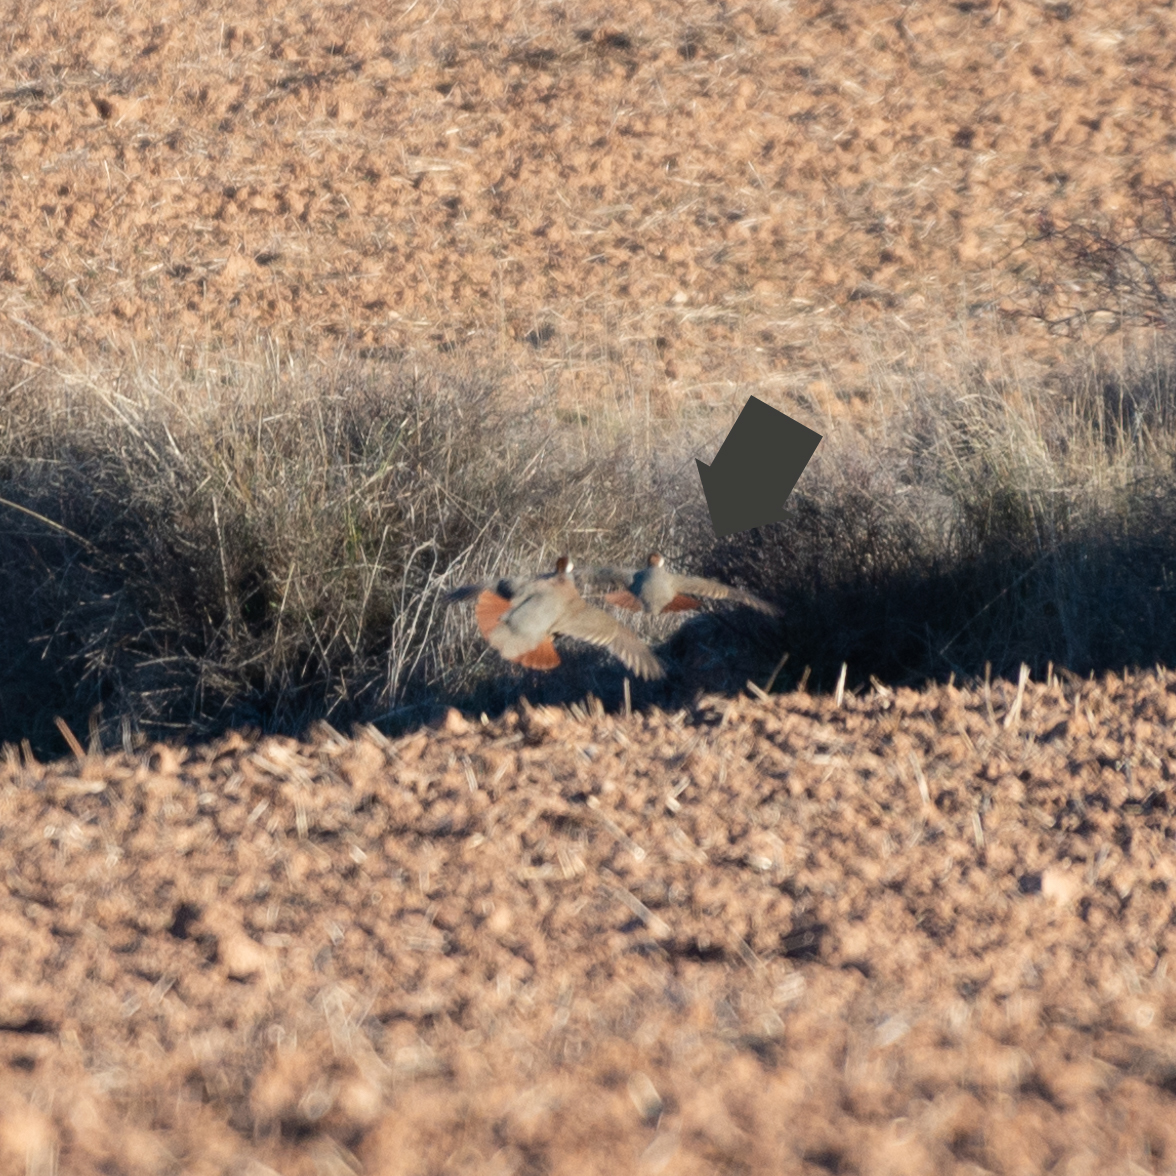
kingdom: Animalia
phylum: Chordata
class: Aves
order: Galliformes
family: Phasianidae
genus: Alectoris
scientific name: Alectoris rufa
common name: Red-legged partridge
